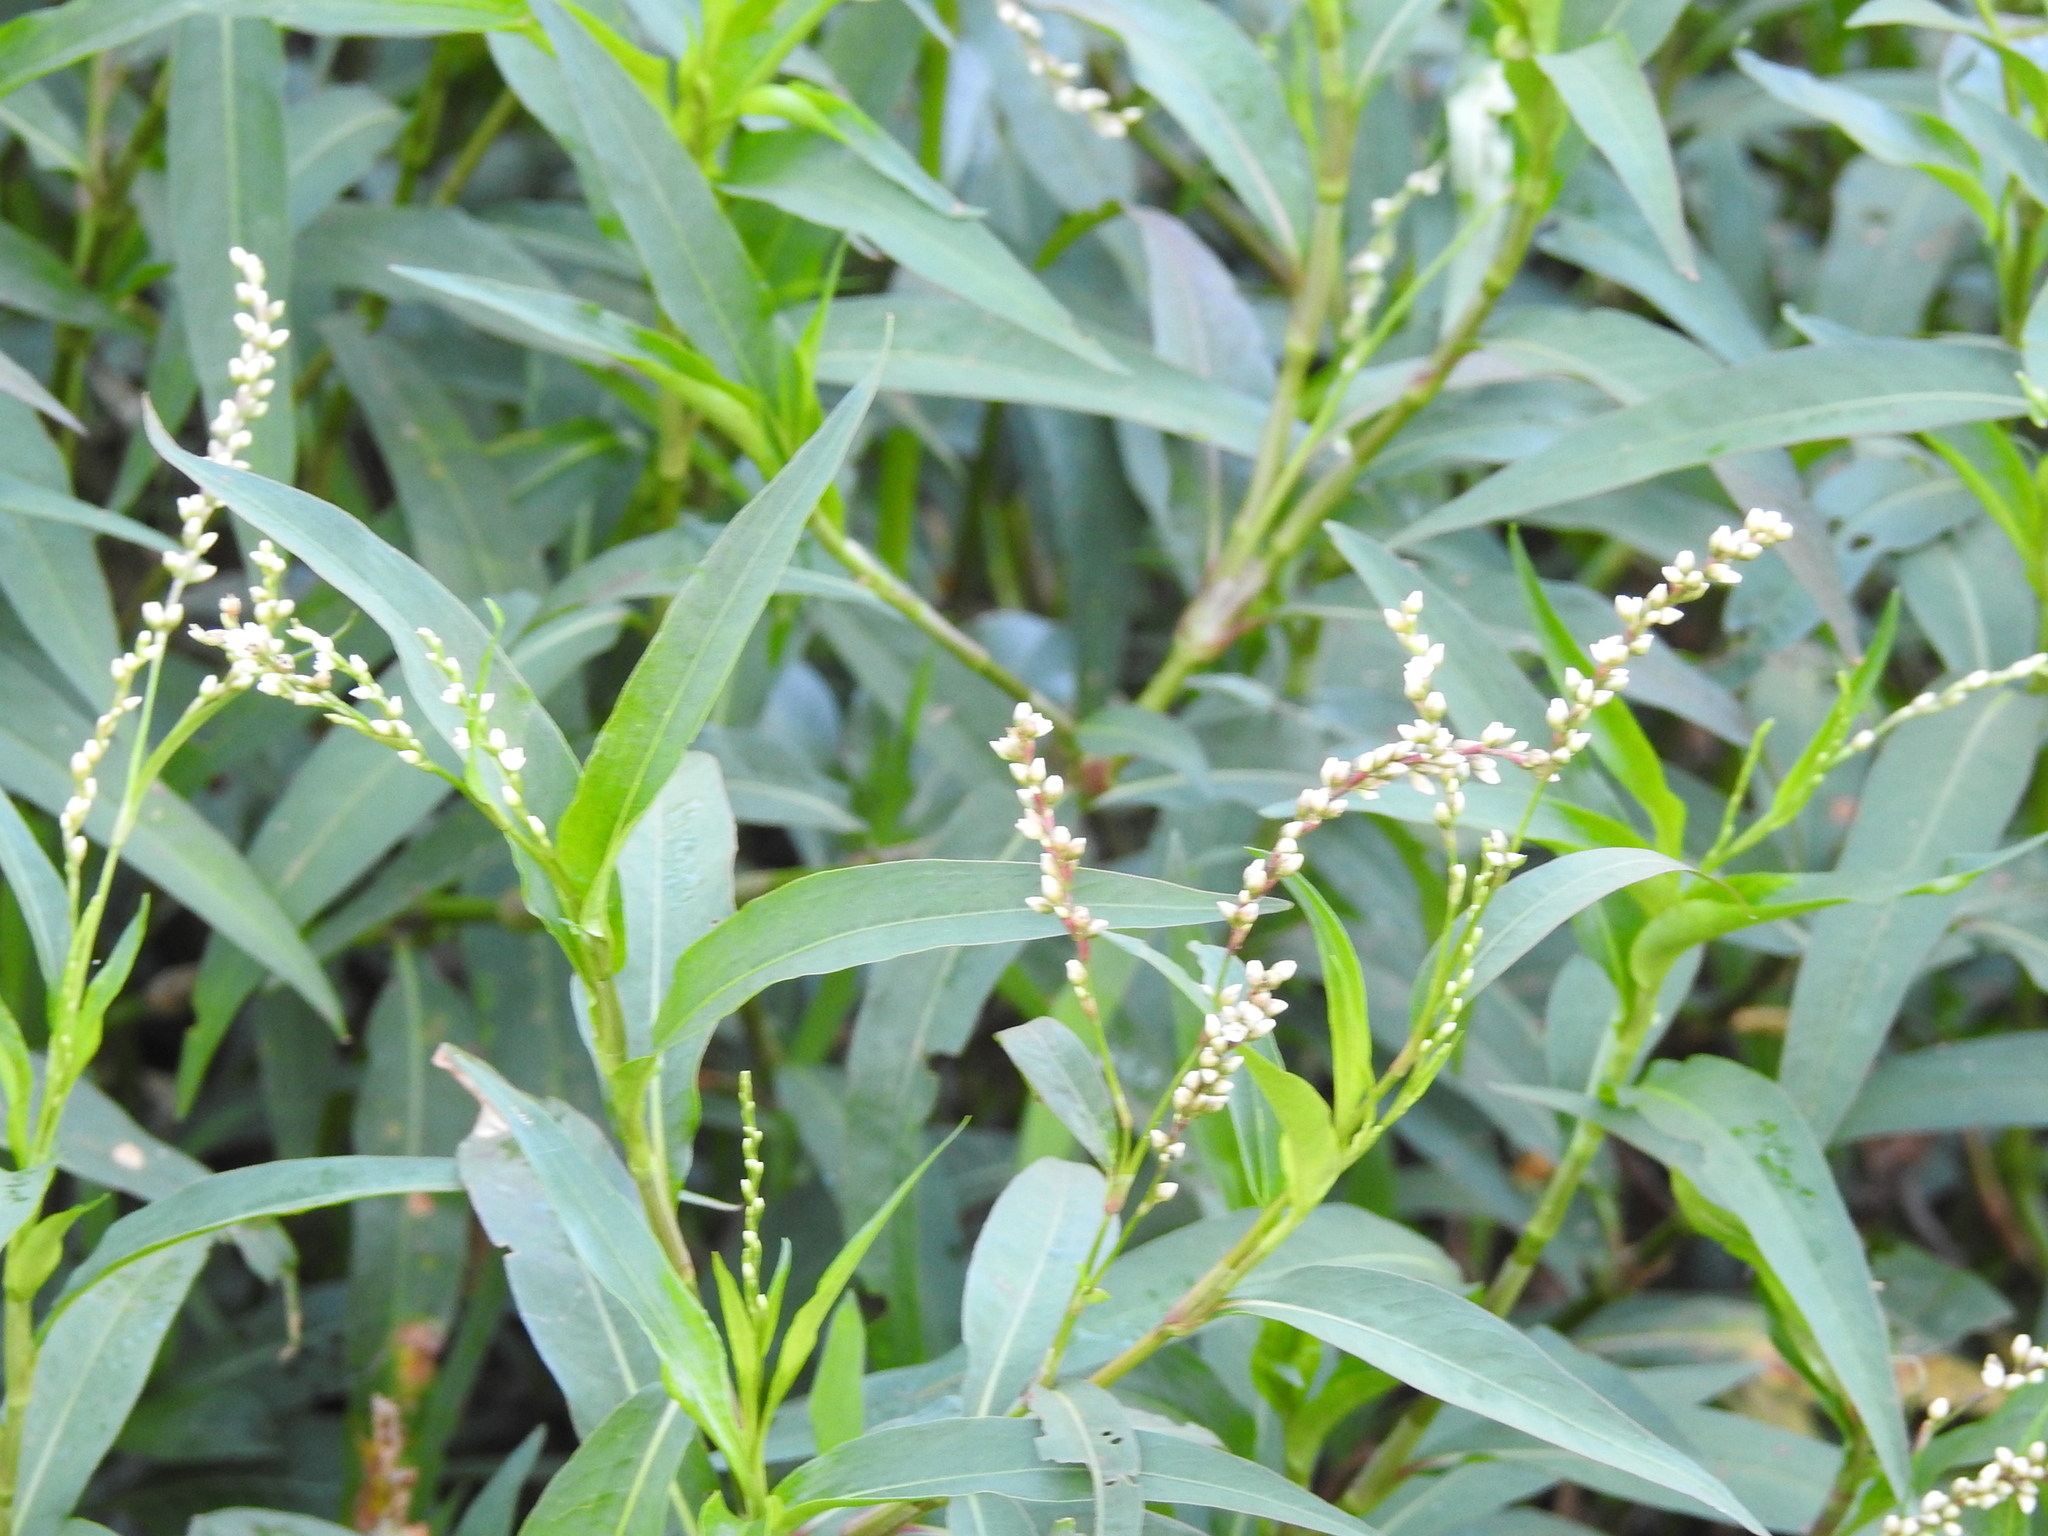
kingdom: Plantae
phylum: Tracheophyta
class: Magnoliopsida
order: Caryophyllales
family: Polygonaceae
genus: Persicaria
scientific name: Persicaria punctata
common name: Dotted smartweed
